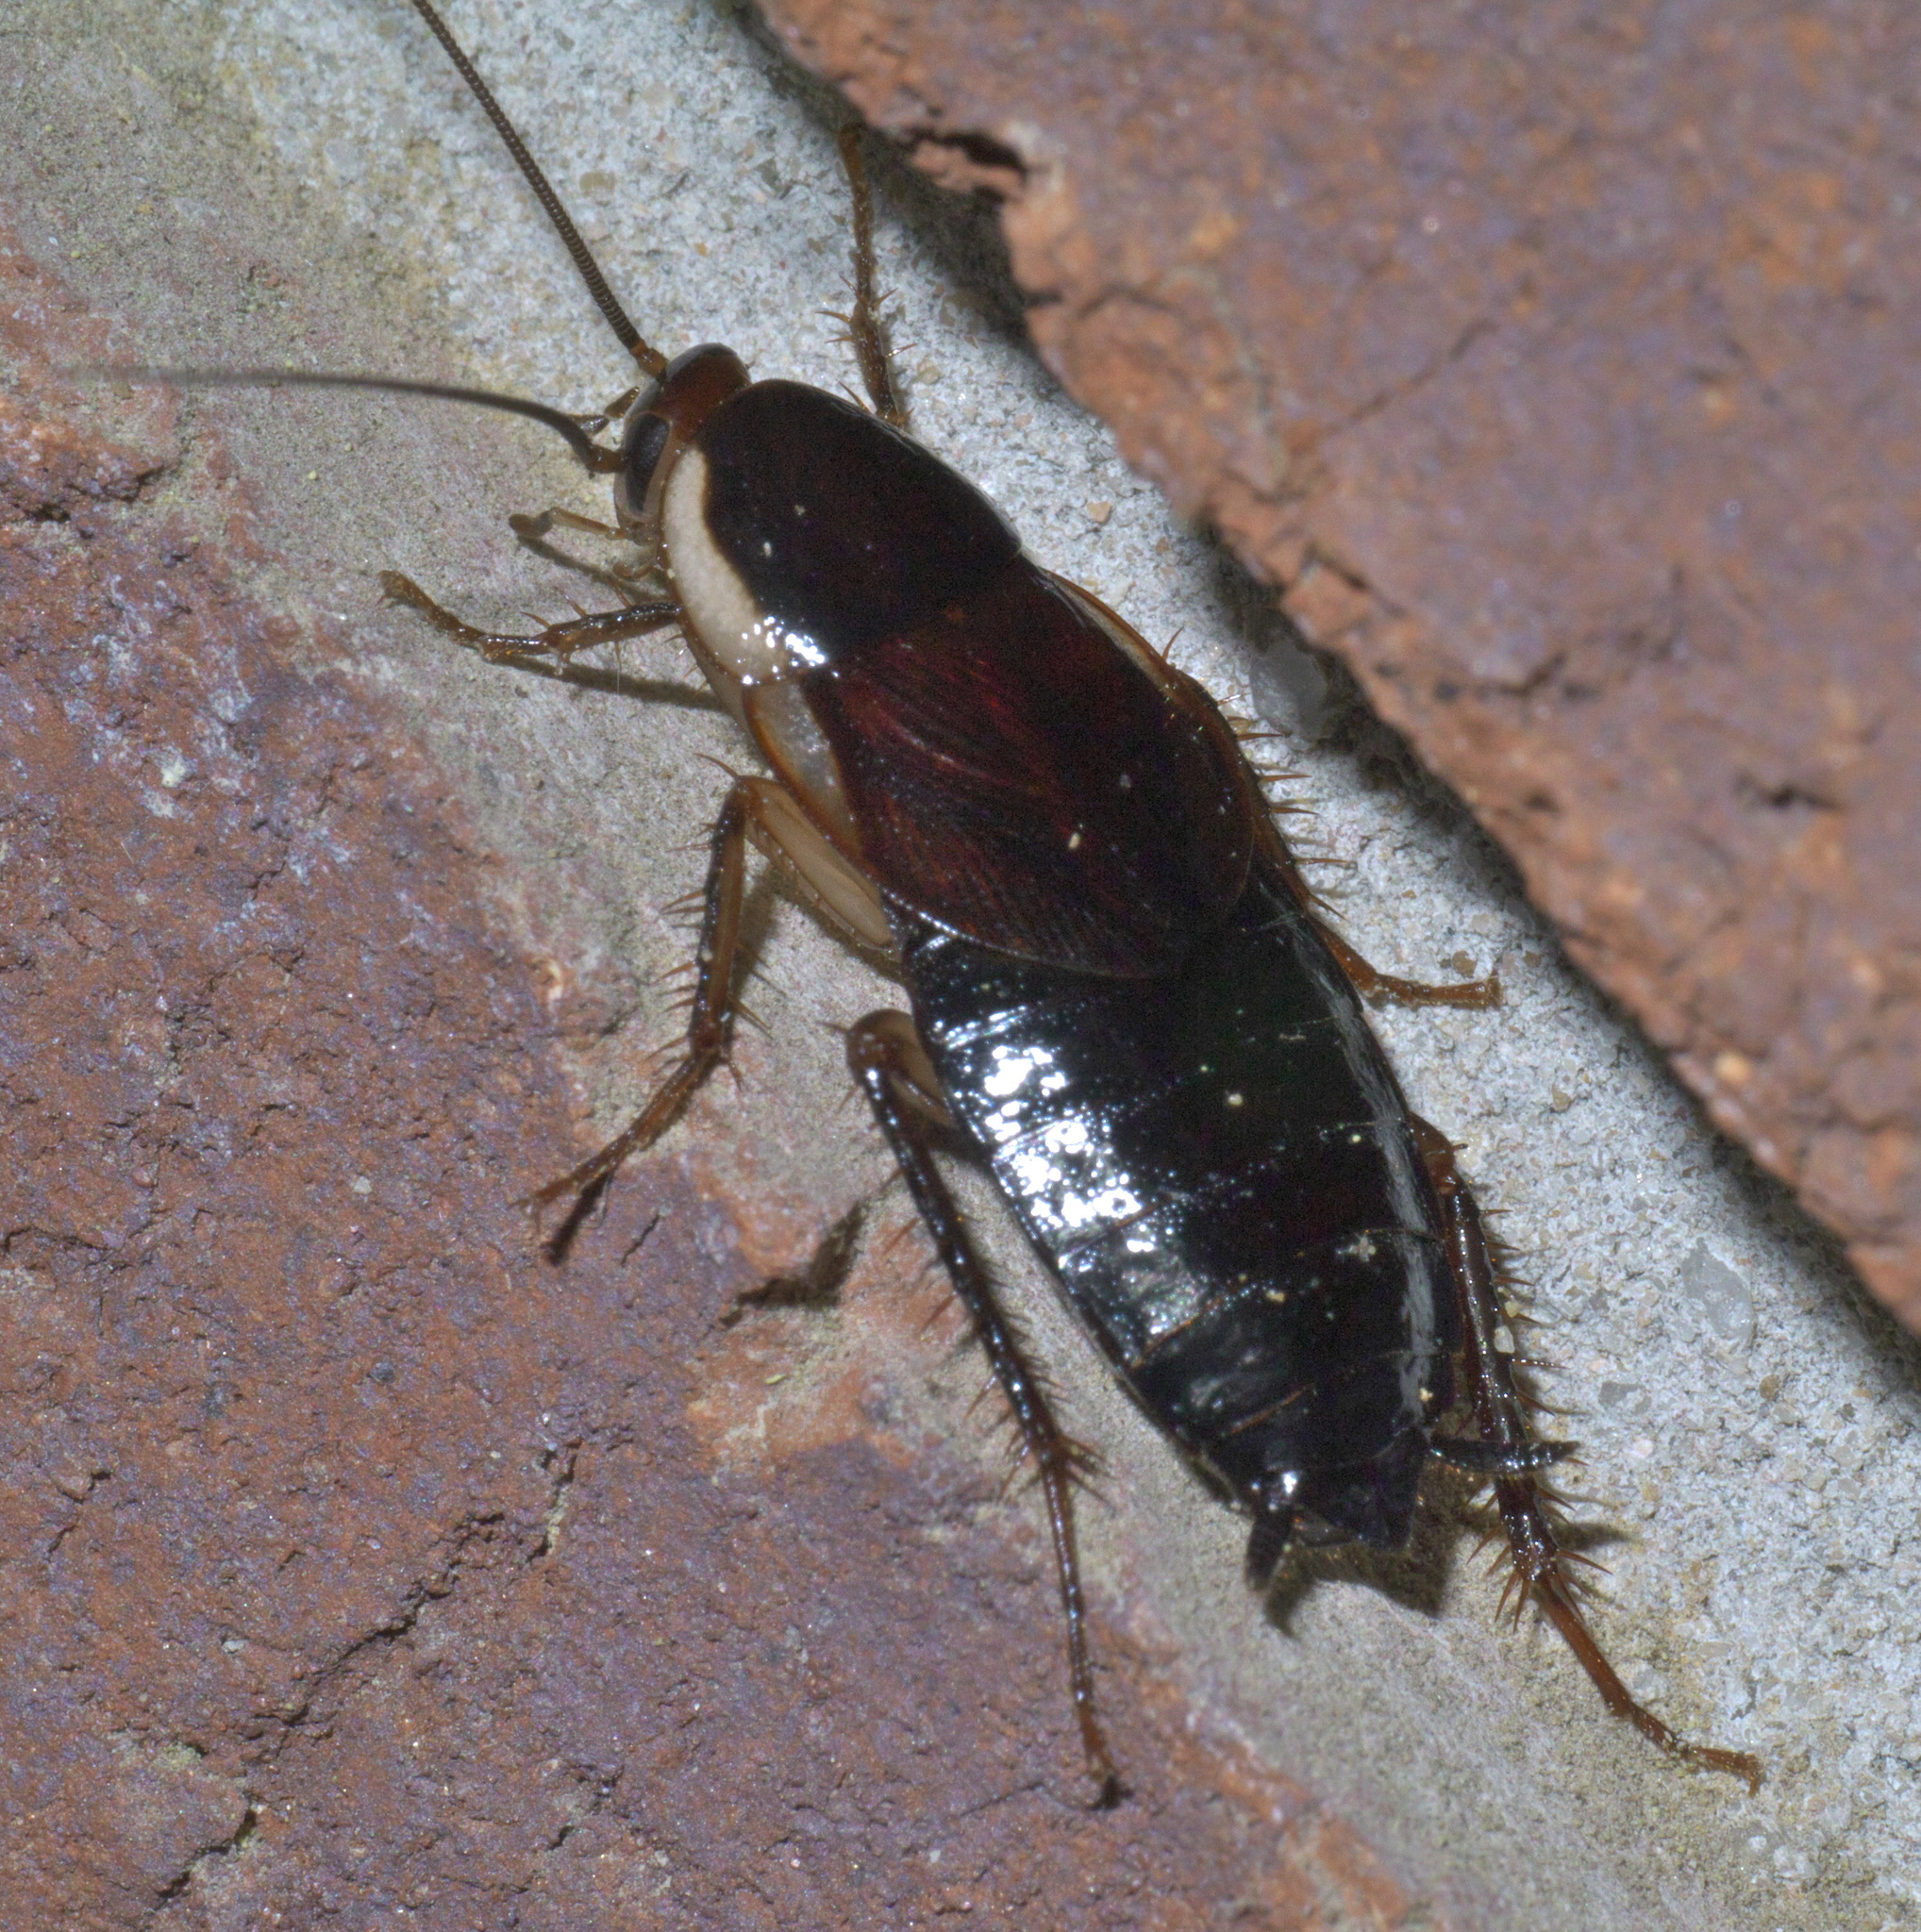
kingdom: Animalia
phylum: Arthropoda
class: Insecta
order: Blattodea
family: Ectobiidae
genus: Parcoblatta
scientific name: Parcoblatta pennsylvanica
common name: Pennsylvanian wood cockroach
